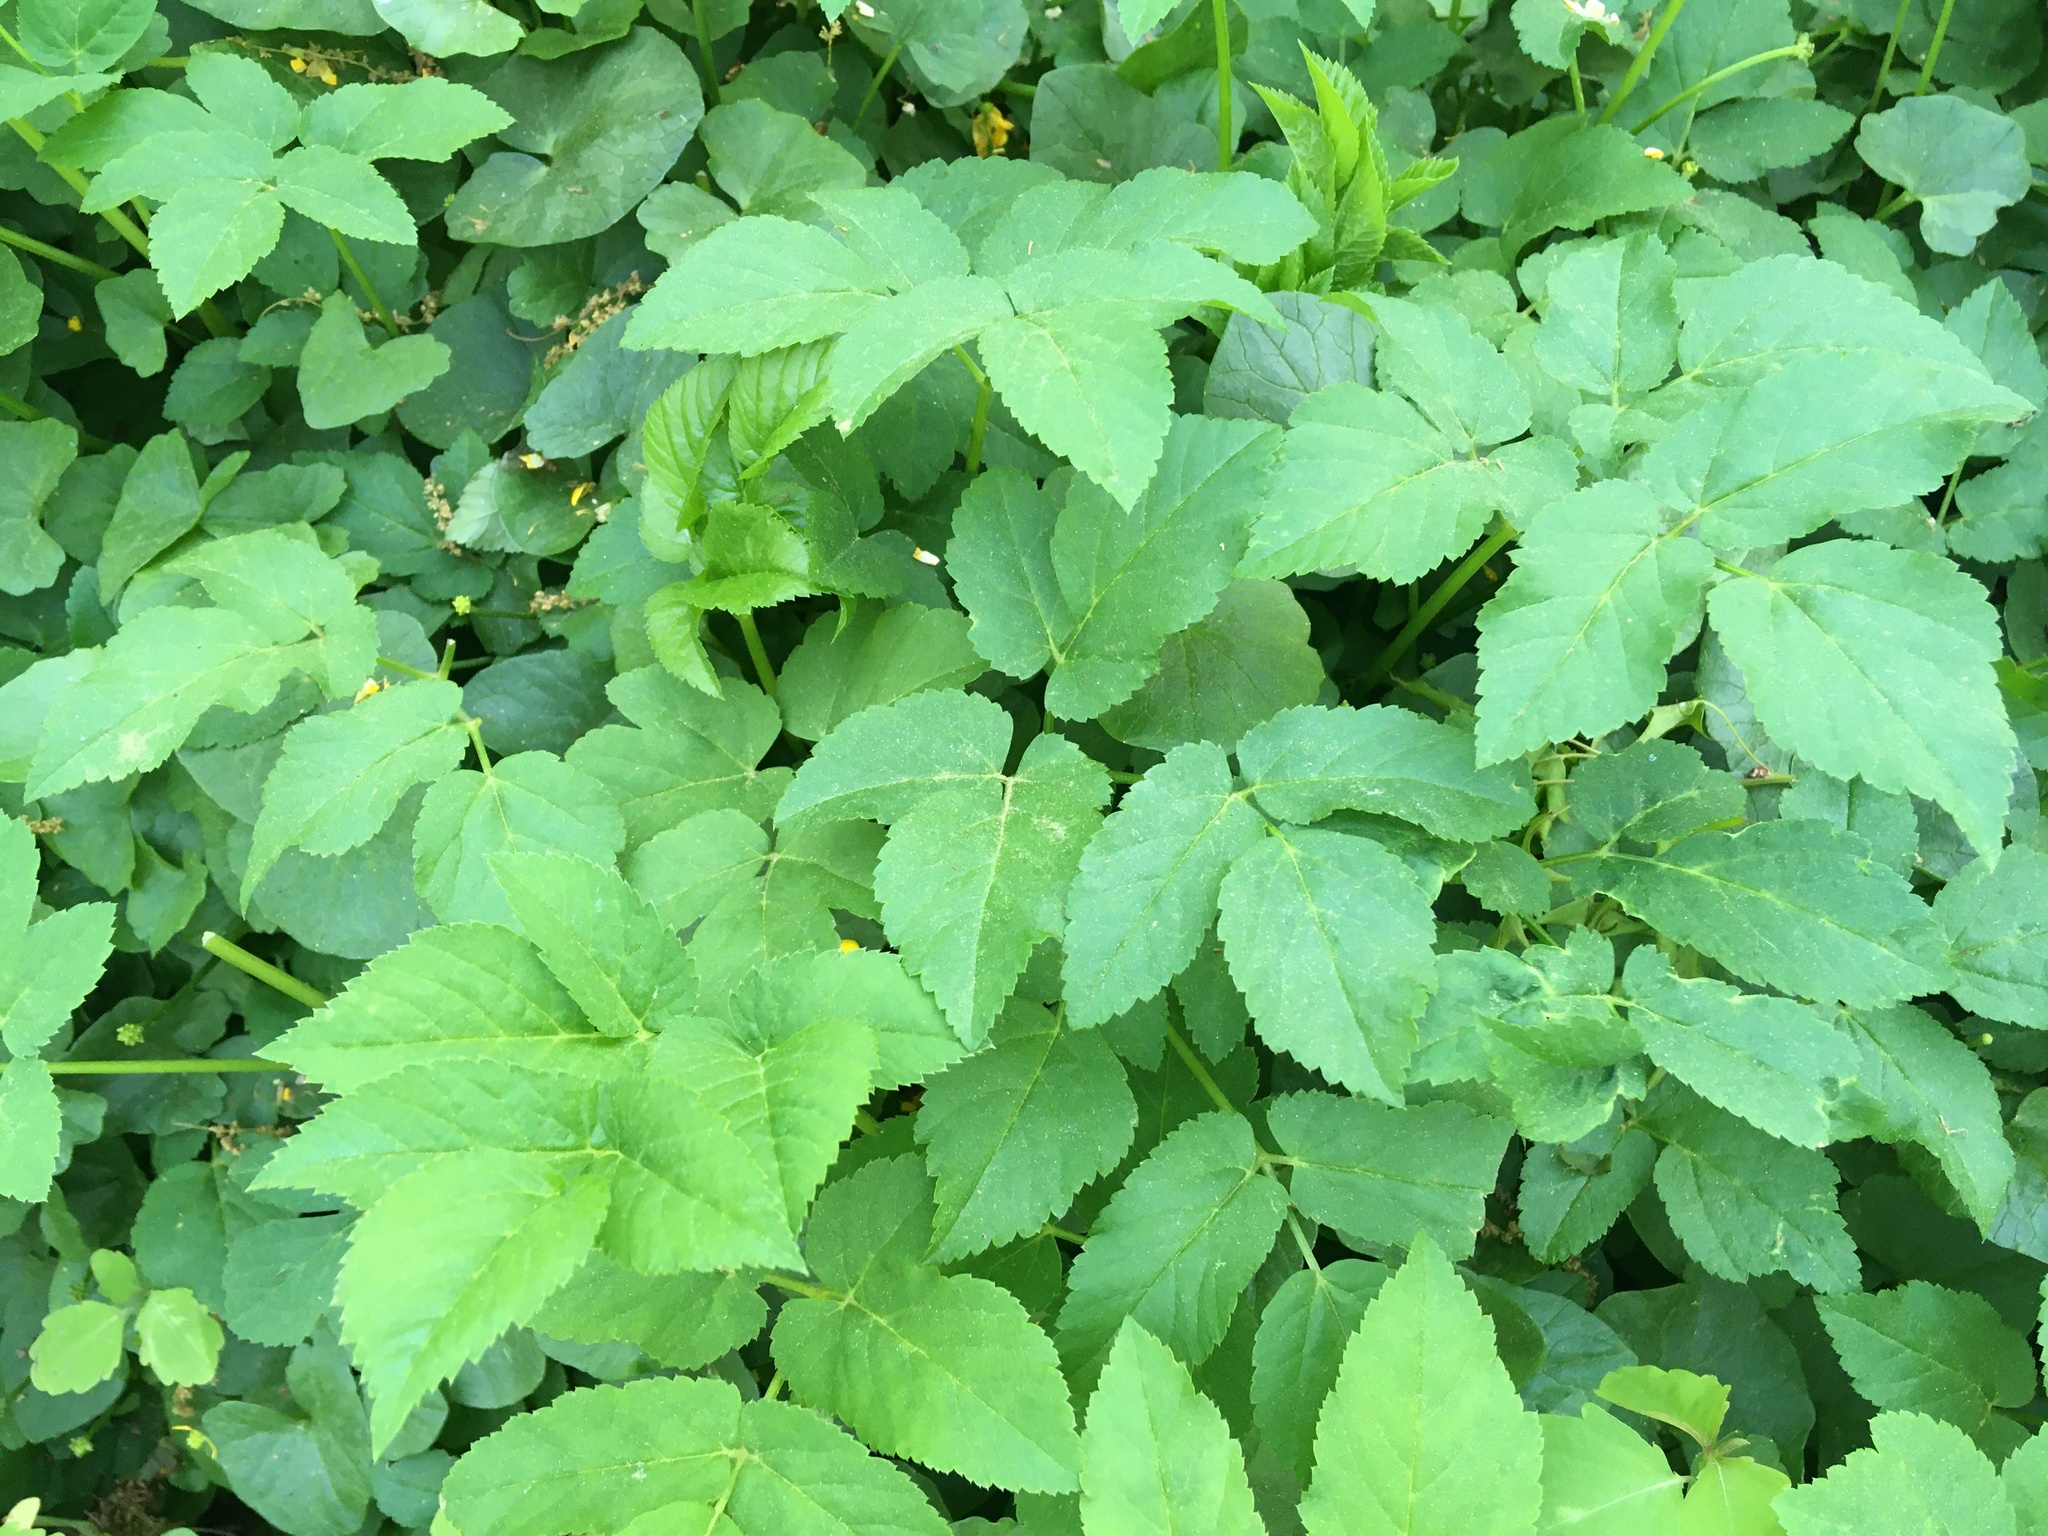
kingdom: Plantae
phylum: Tracheophyta
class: Magnoliopsida
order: Apiales
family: Apiaceae
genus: Aegopodium
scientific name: Aegopodium podagraria
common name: Ground-elder
